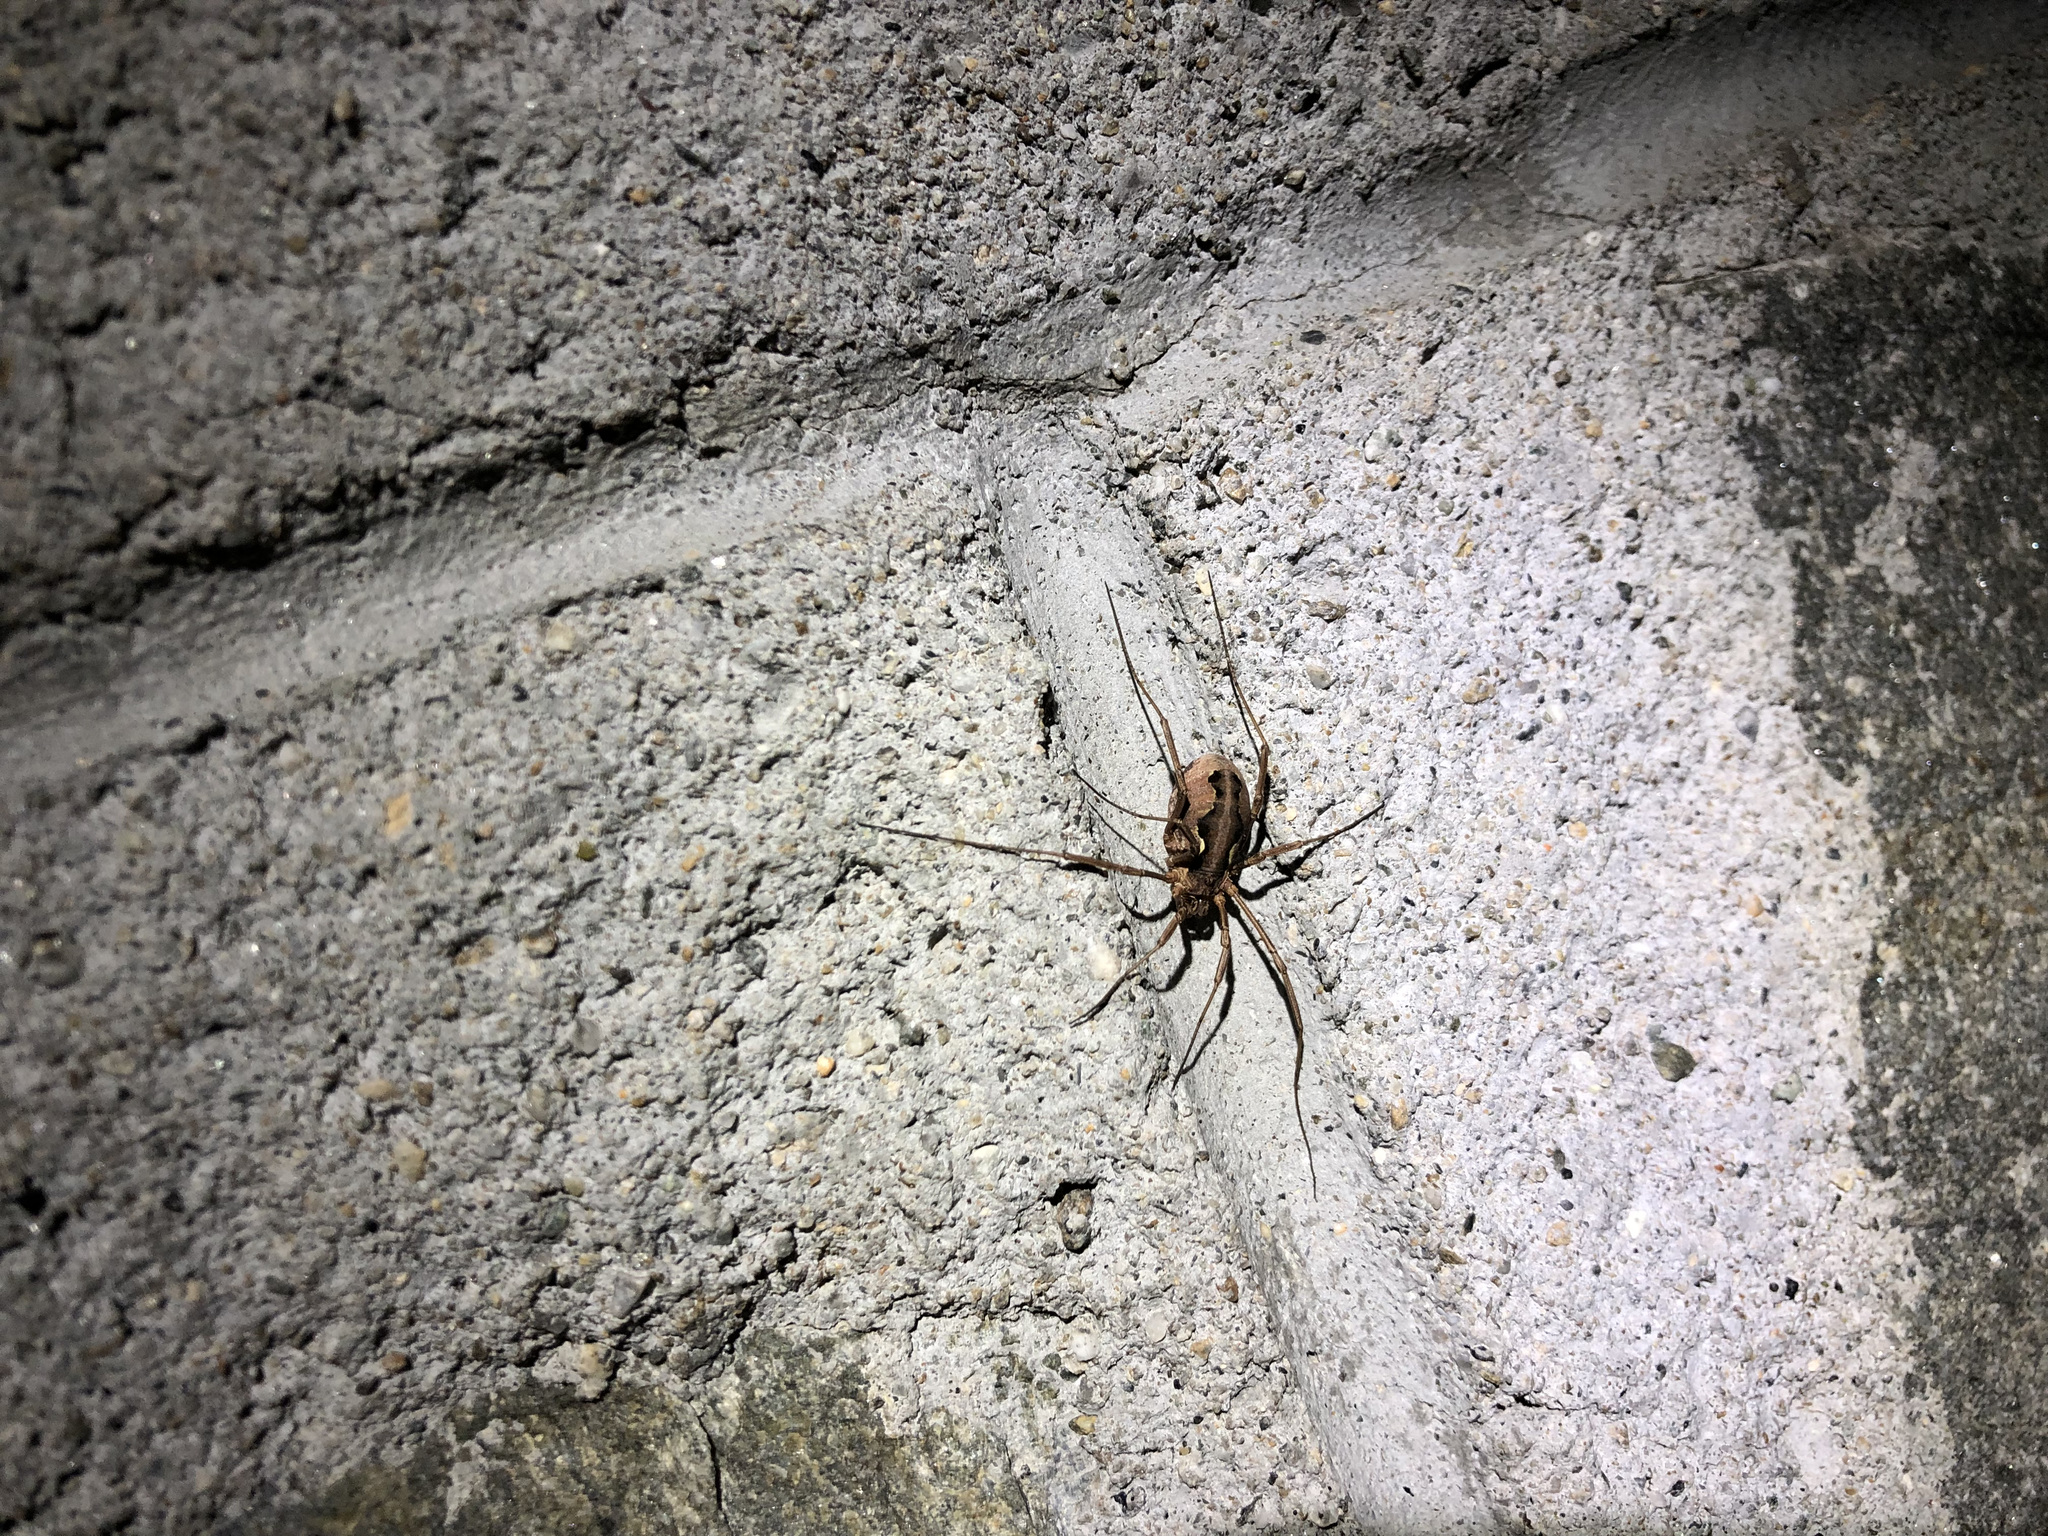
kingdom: Animalia
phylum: Arthropoda
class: Arachnida
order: Opiliones
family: Phalangiidae
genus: Mitopus
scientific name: Mitopus morio
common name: Saddleback harvestman
